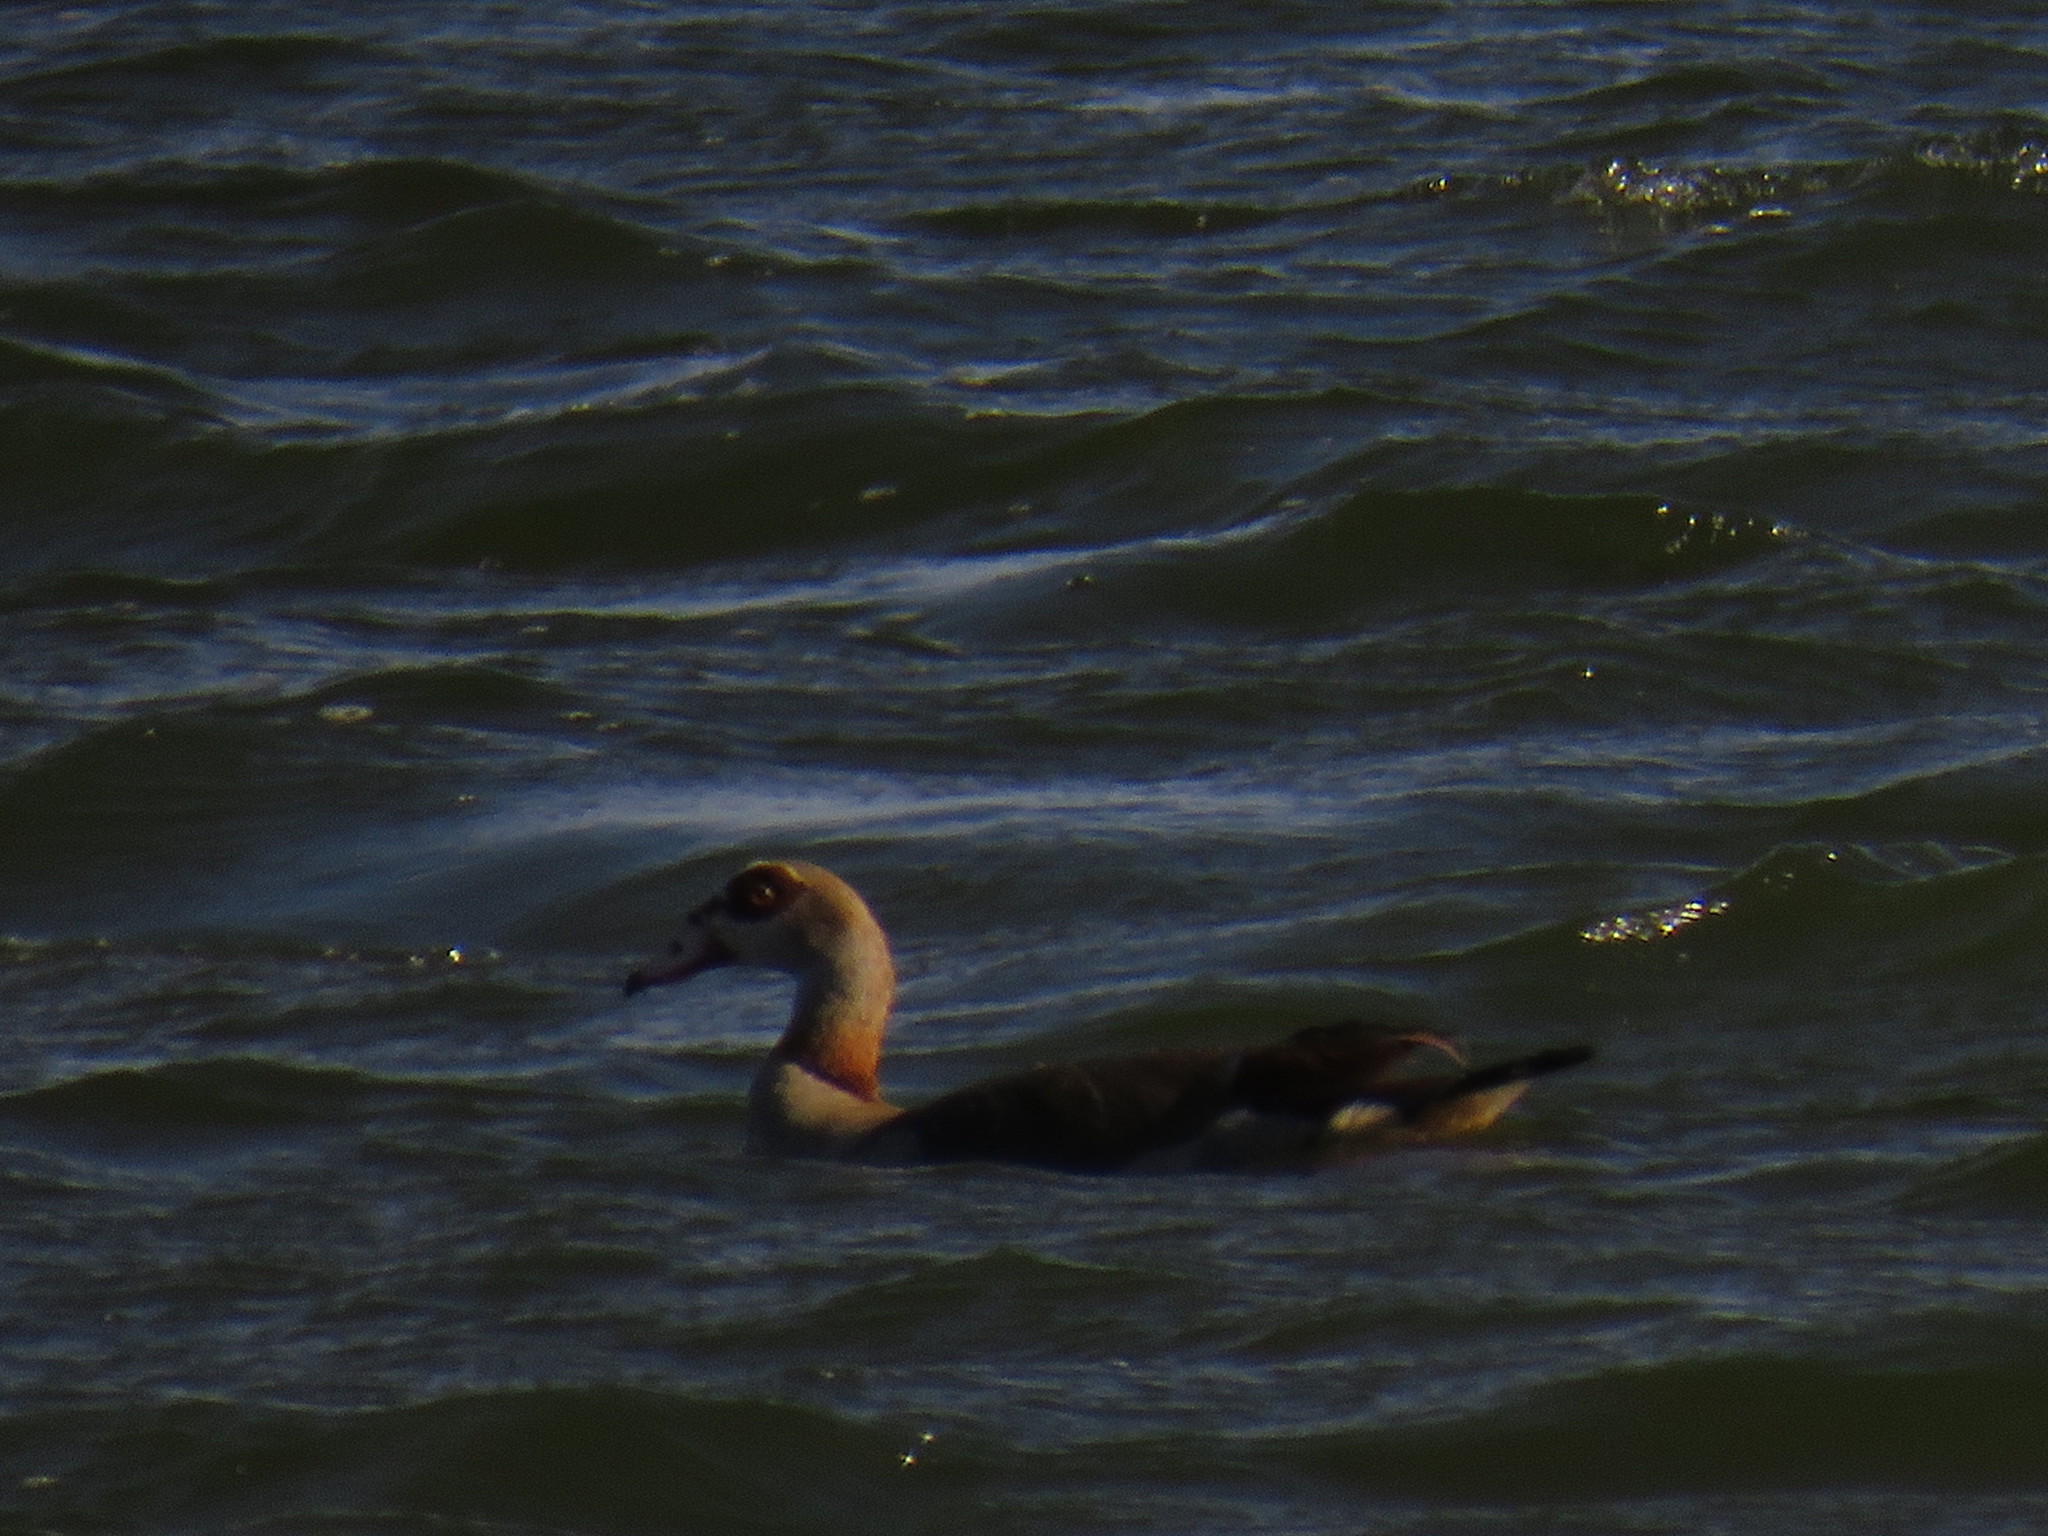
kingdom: Animalia
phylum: Chordata
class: Aves
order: Anseriformes
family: Anatidae
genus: Alopochen
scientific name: Alopochen aegyptiaca
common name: Egyptian goose
